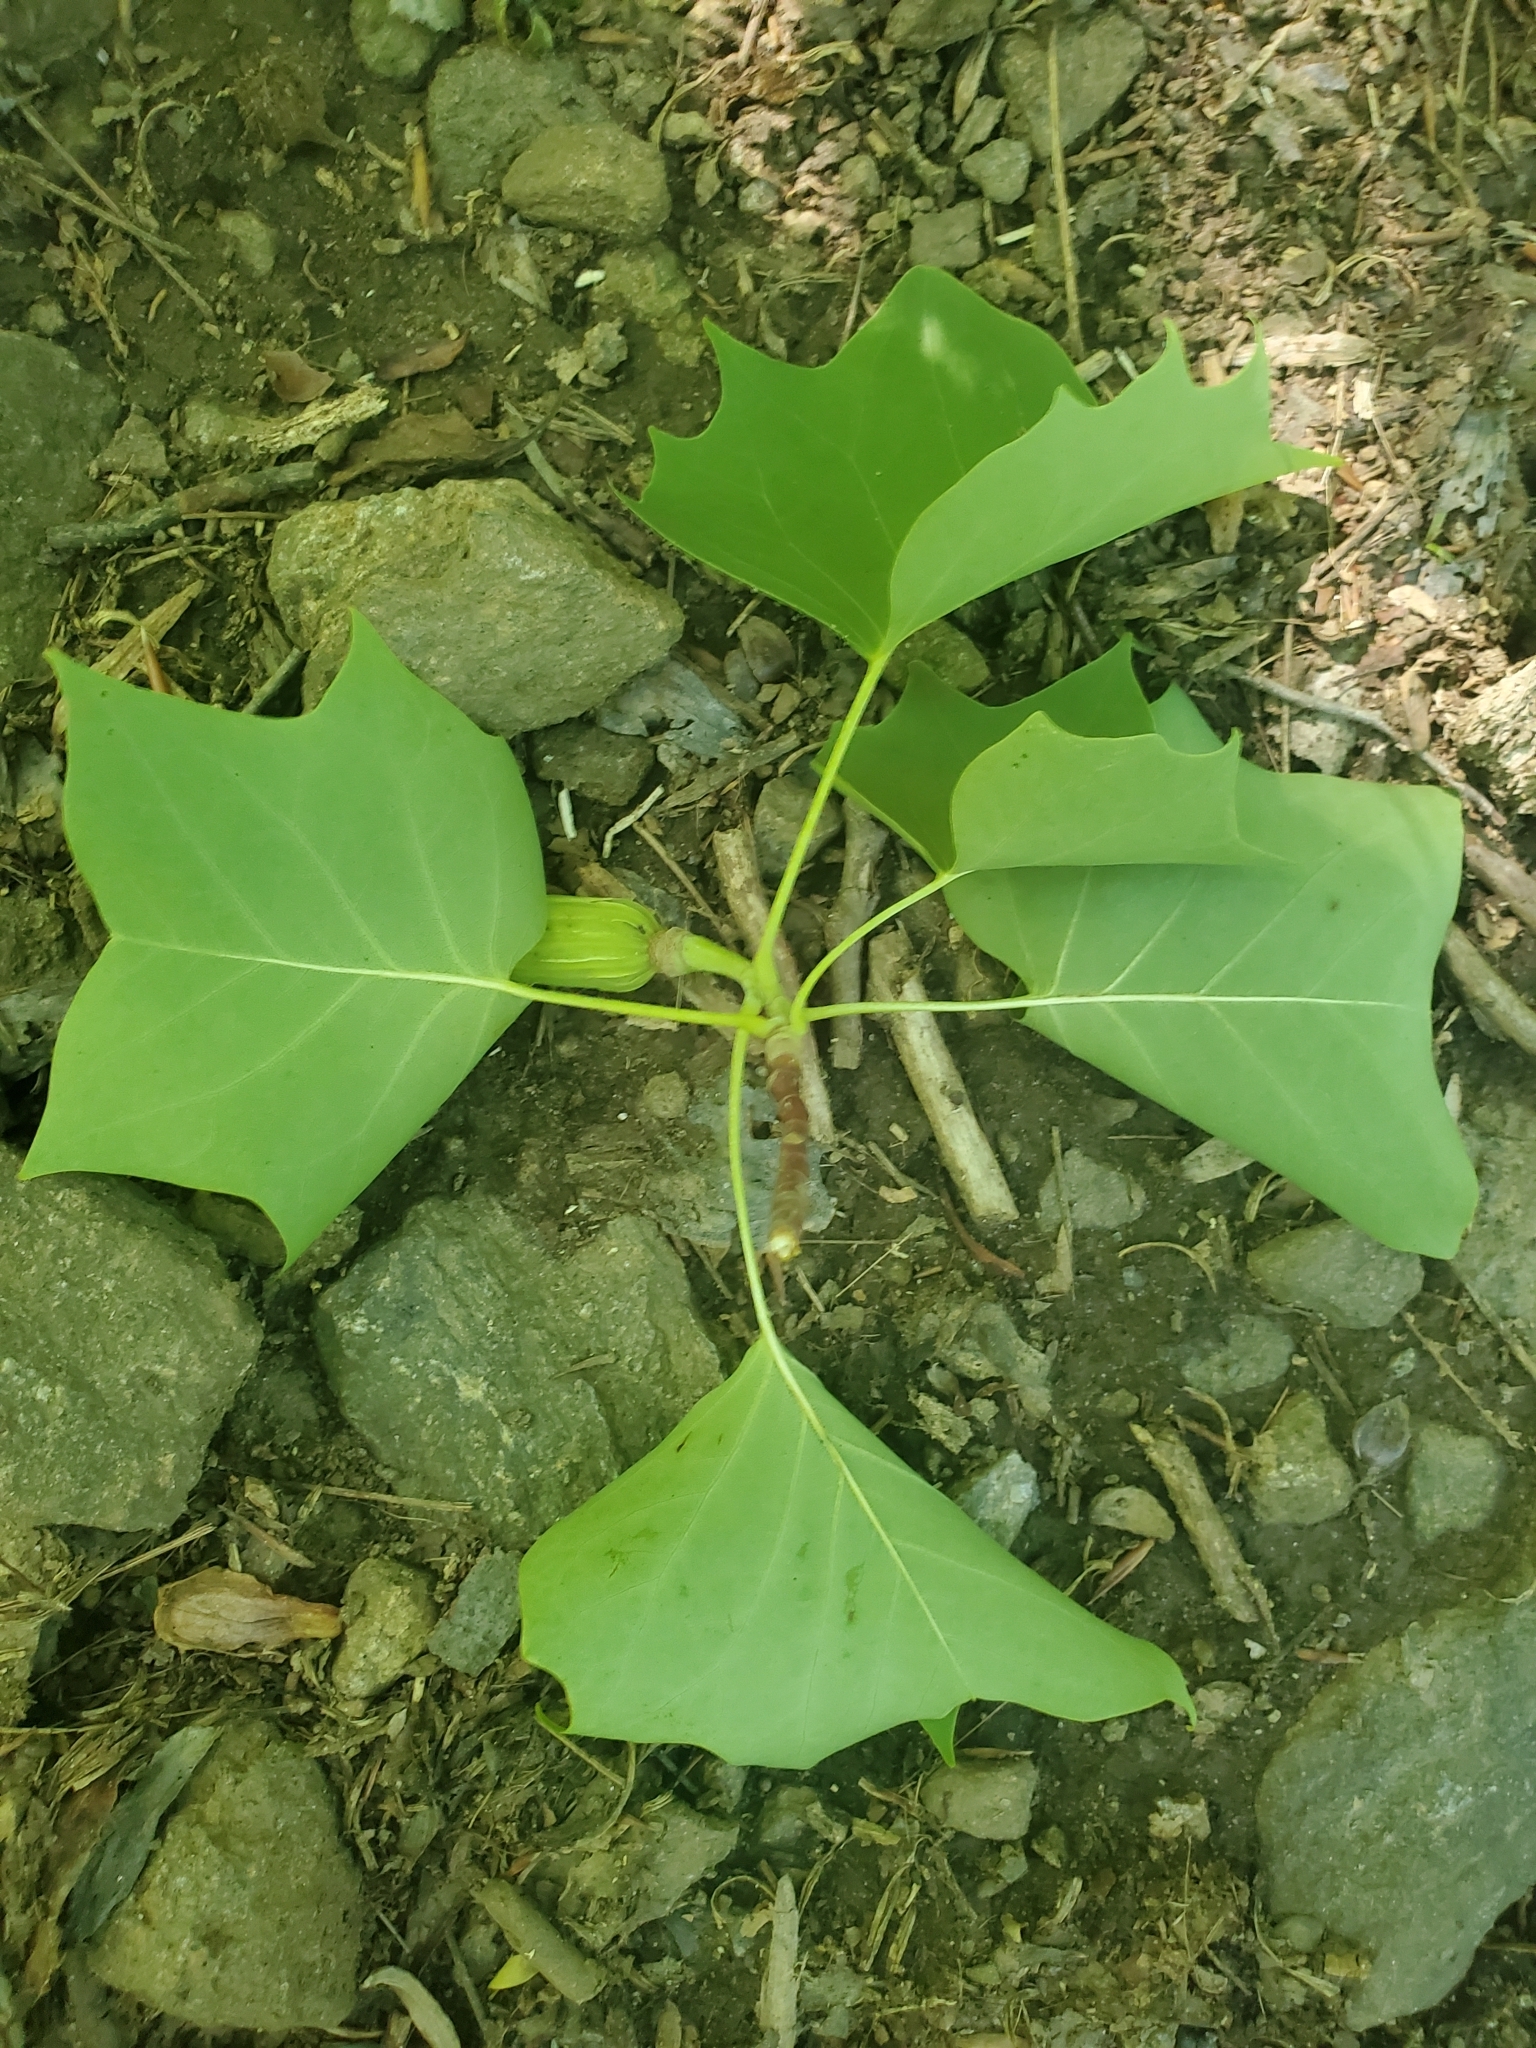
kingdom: Plantae
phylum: Tracheophyta
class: Magnoliopsida
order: Magnoliales
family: Magnoliaceae
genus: Liriodendron
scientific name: Liriodendron tulipifera
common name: Tulip tree
